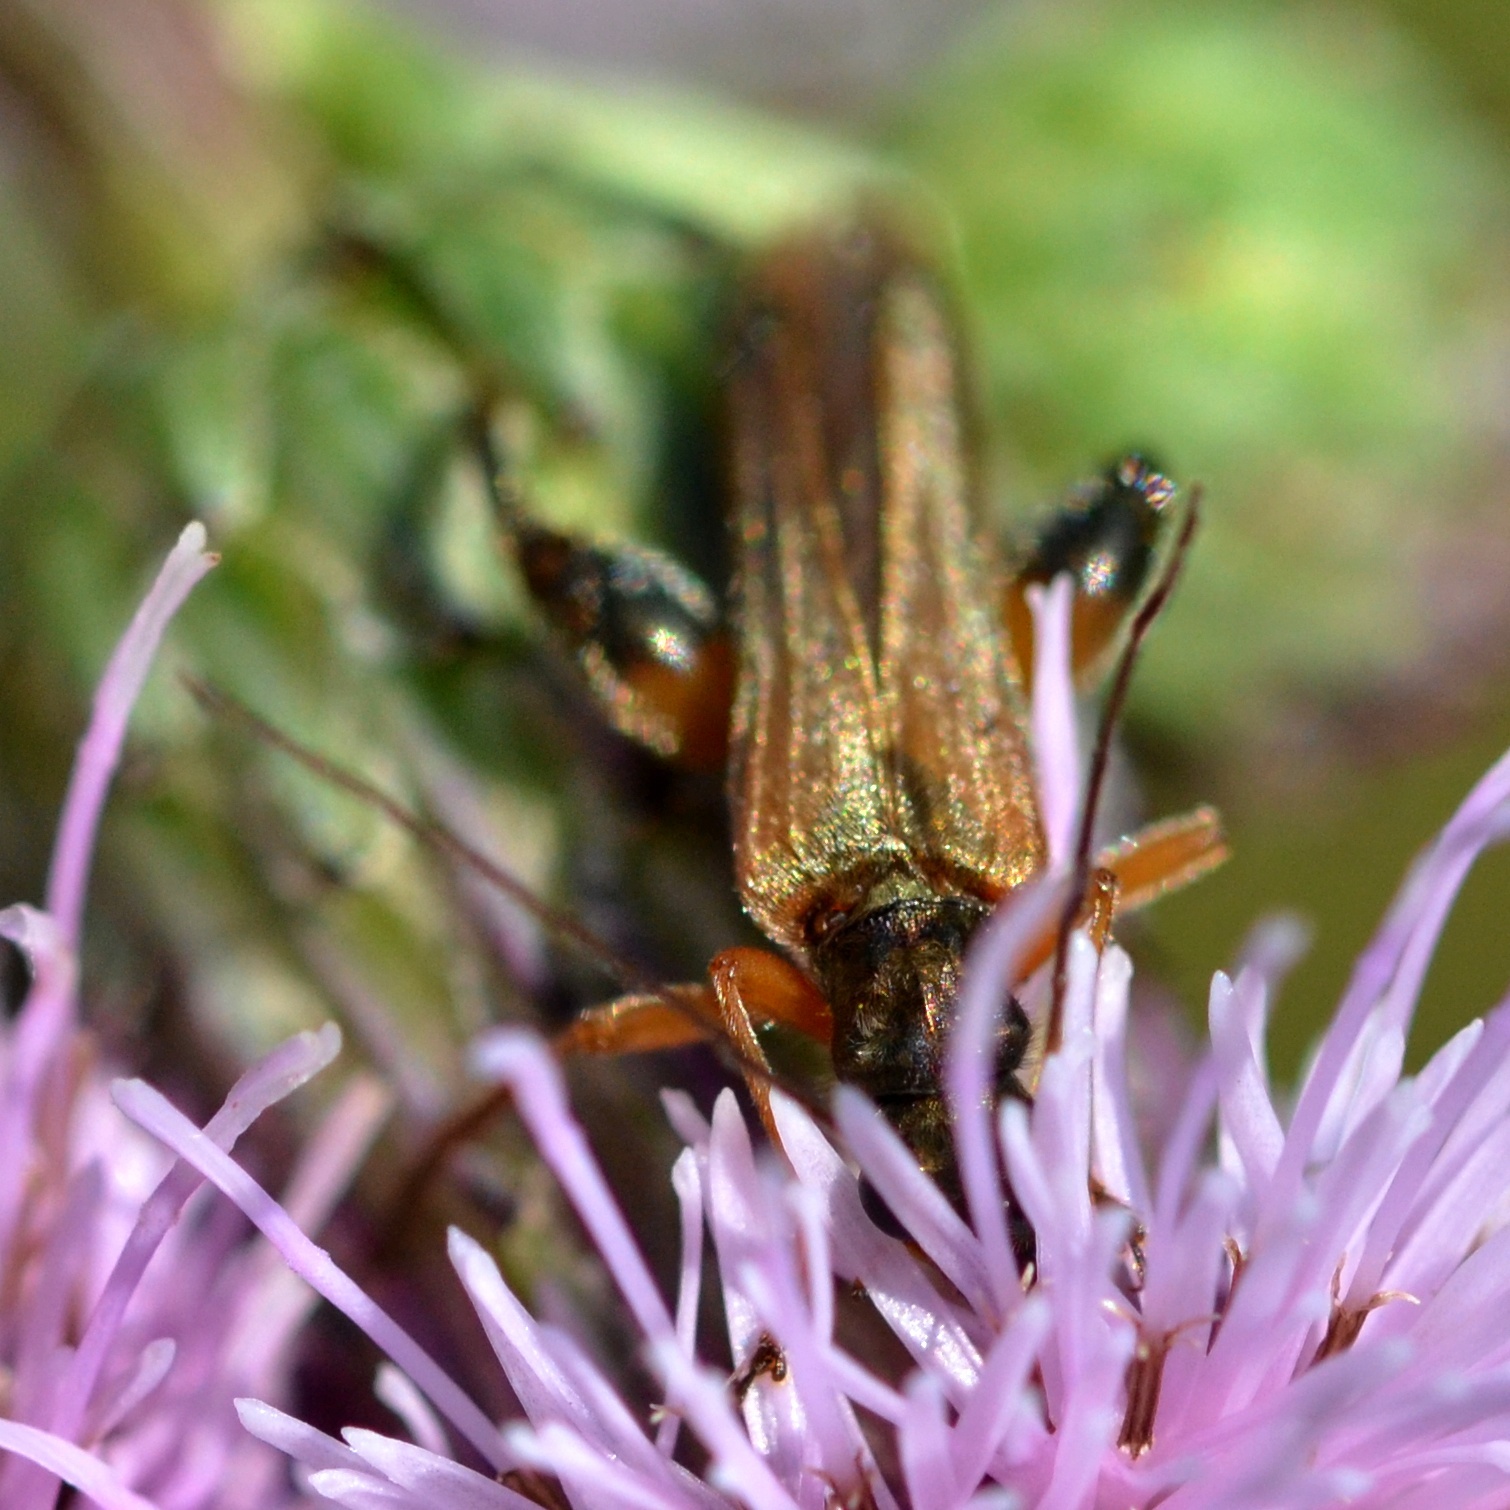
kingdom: Animalia
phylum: Arthropoda
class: Insecta
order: Coleoptera
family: Oedemeridae
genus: Oedemera
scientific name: Oedemera podagrariae
